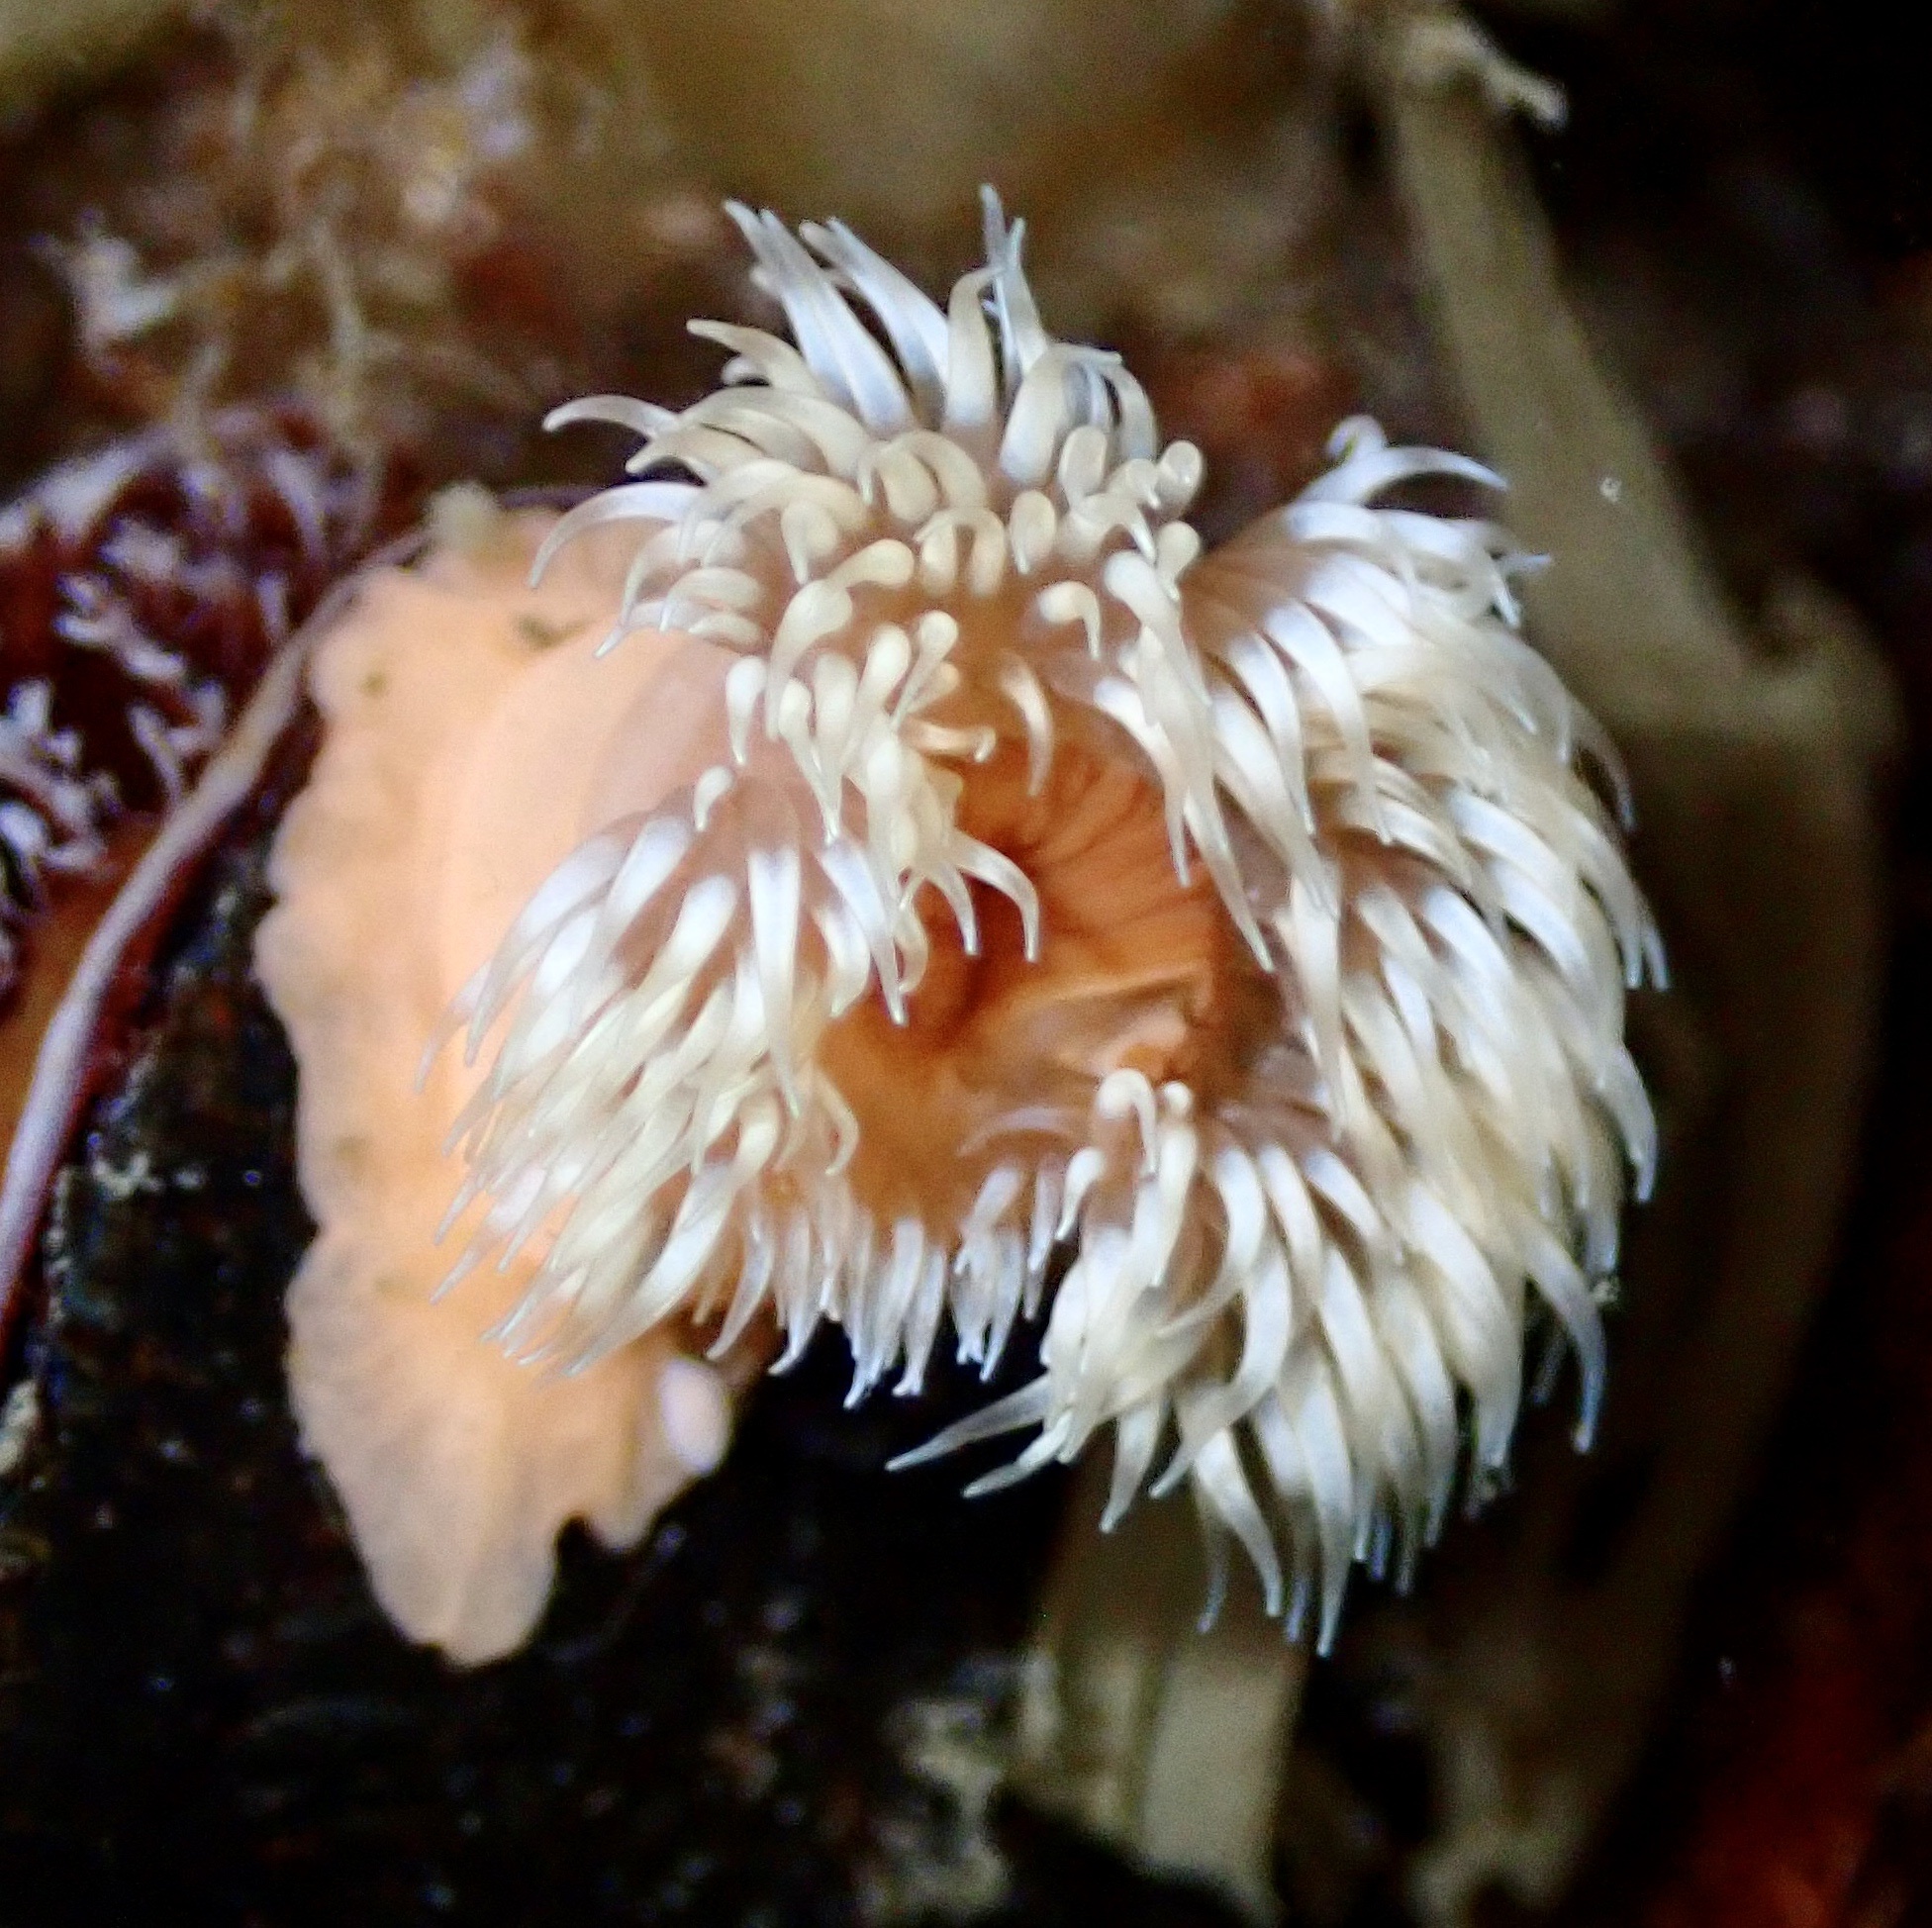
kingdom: Animalia
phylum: Cnidaria
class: Anthozoa
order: Actiniaria
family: Metridiidae
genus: Metridium
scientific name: Metridium senile
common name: Clonal plumose anemone
